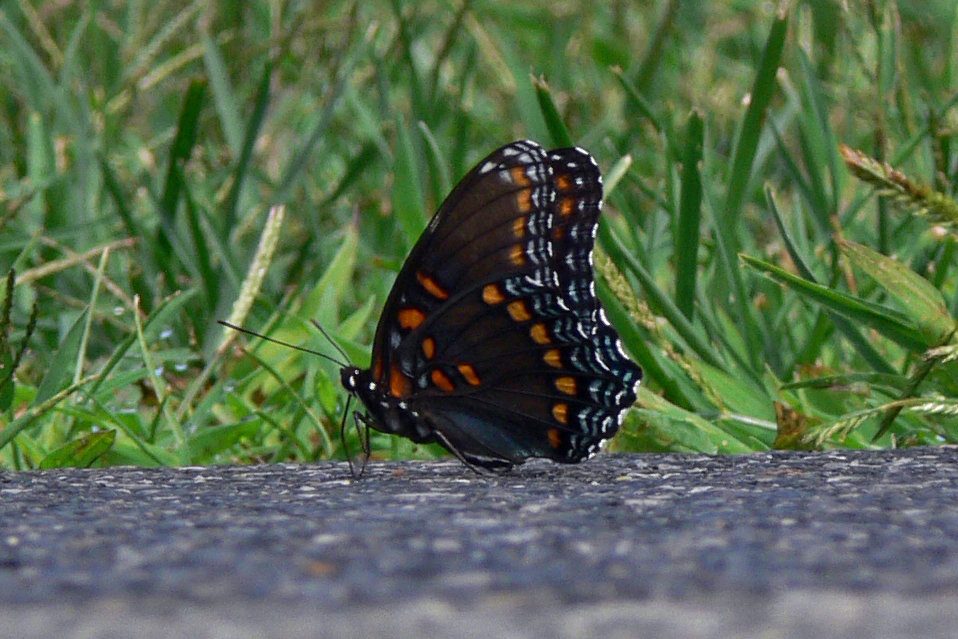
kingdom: Animalia
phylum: Arthropoda
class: Insecta
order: Lepidoptera
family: Nymphalidae
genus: Limenitis
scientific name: Limenitis astyanax
